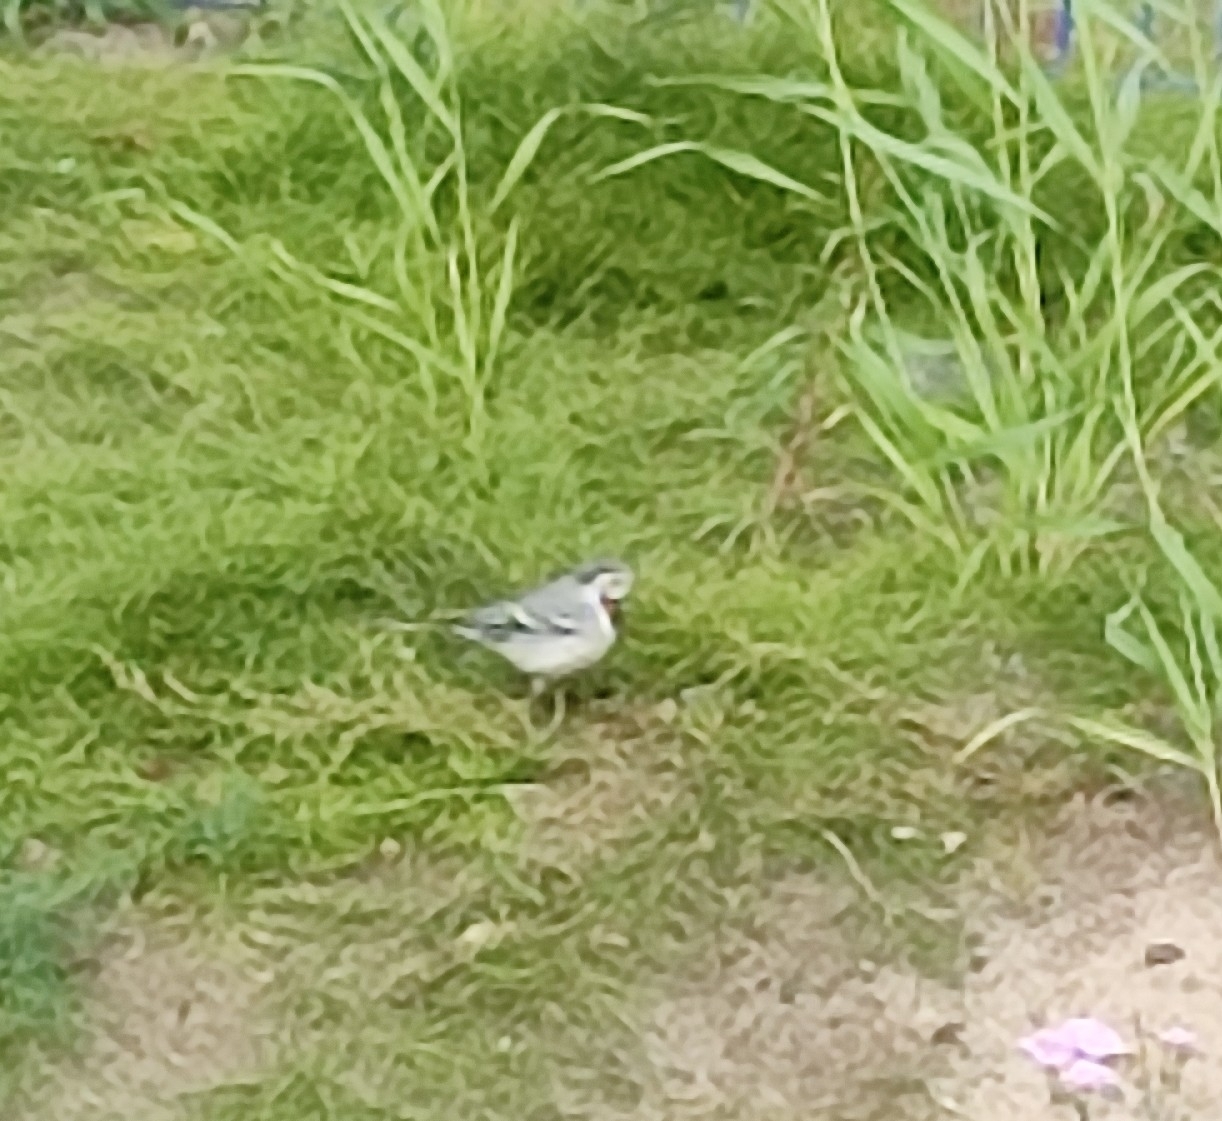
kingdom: Animalia
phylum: Chordata
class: Aves
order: Passeriformes
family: Motacillidae
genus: Motacilla
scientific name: Motacilla alba
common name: White wagtail
